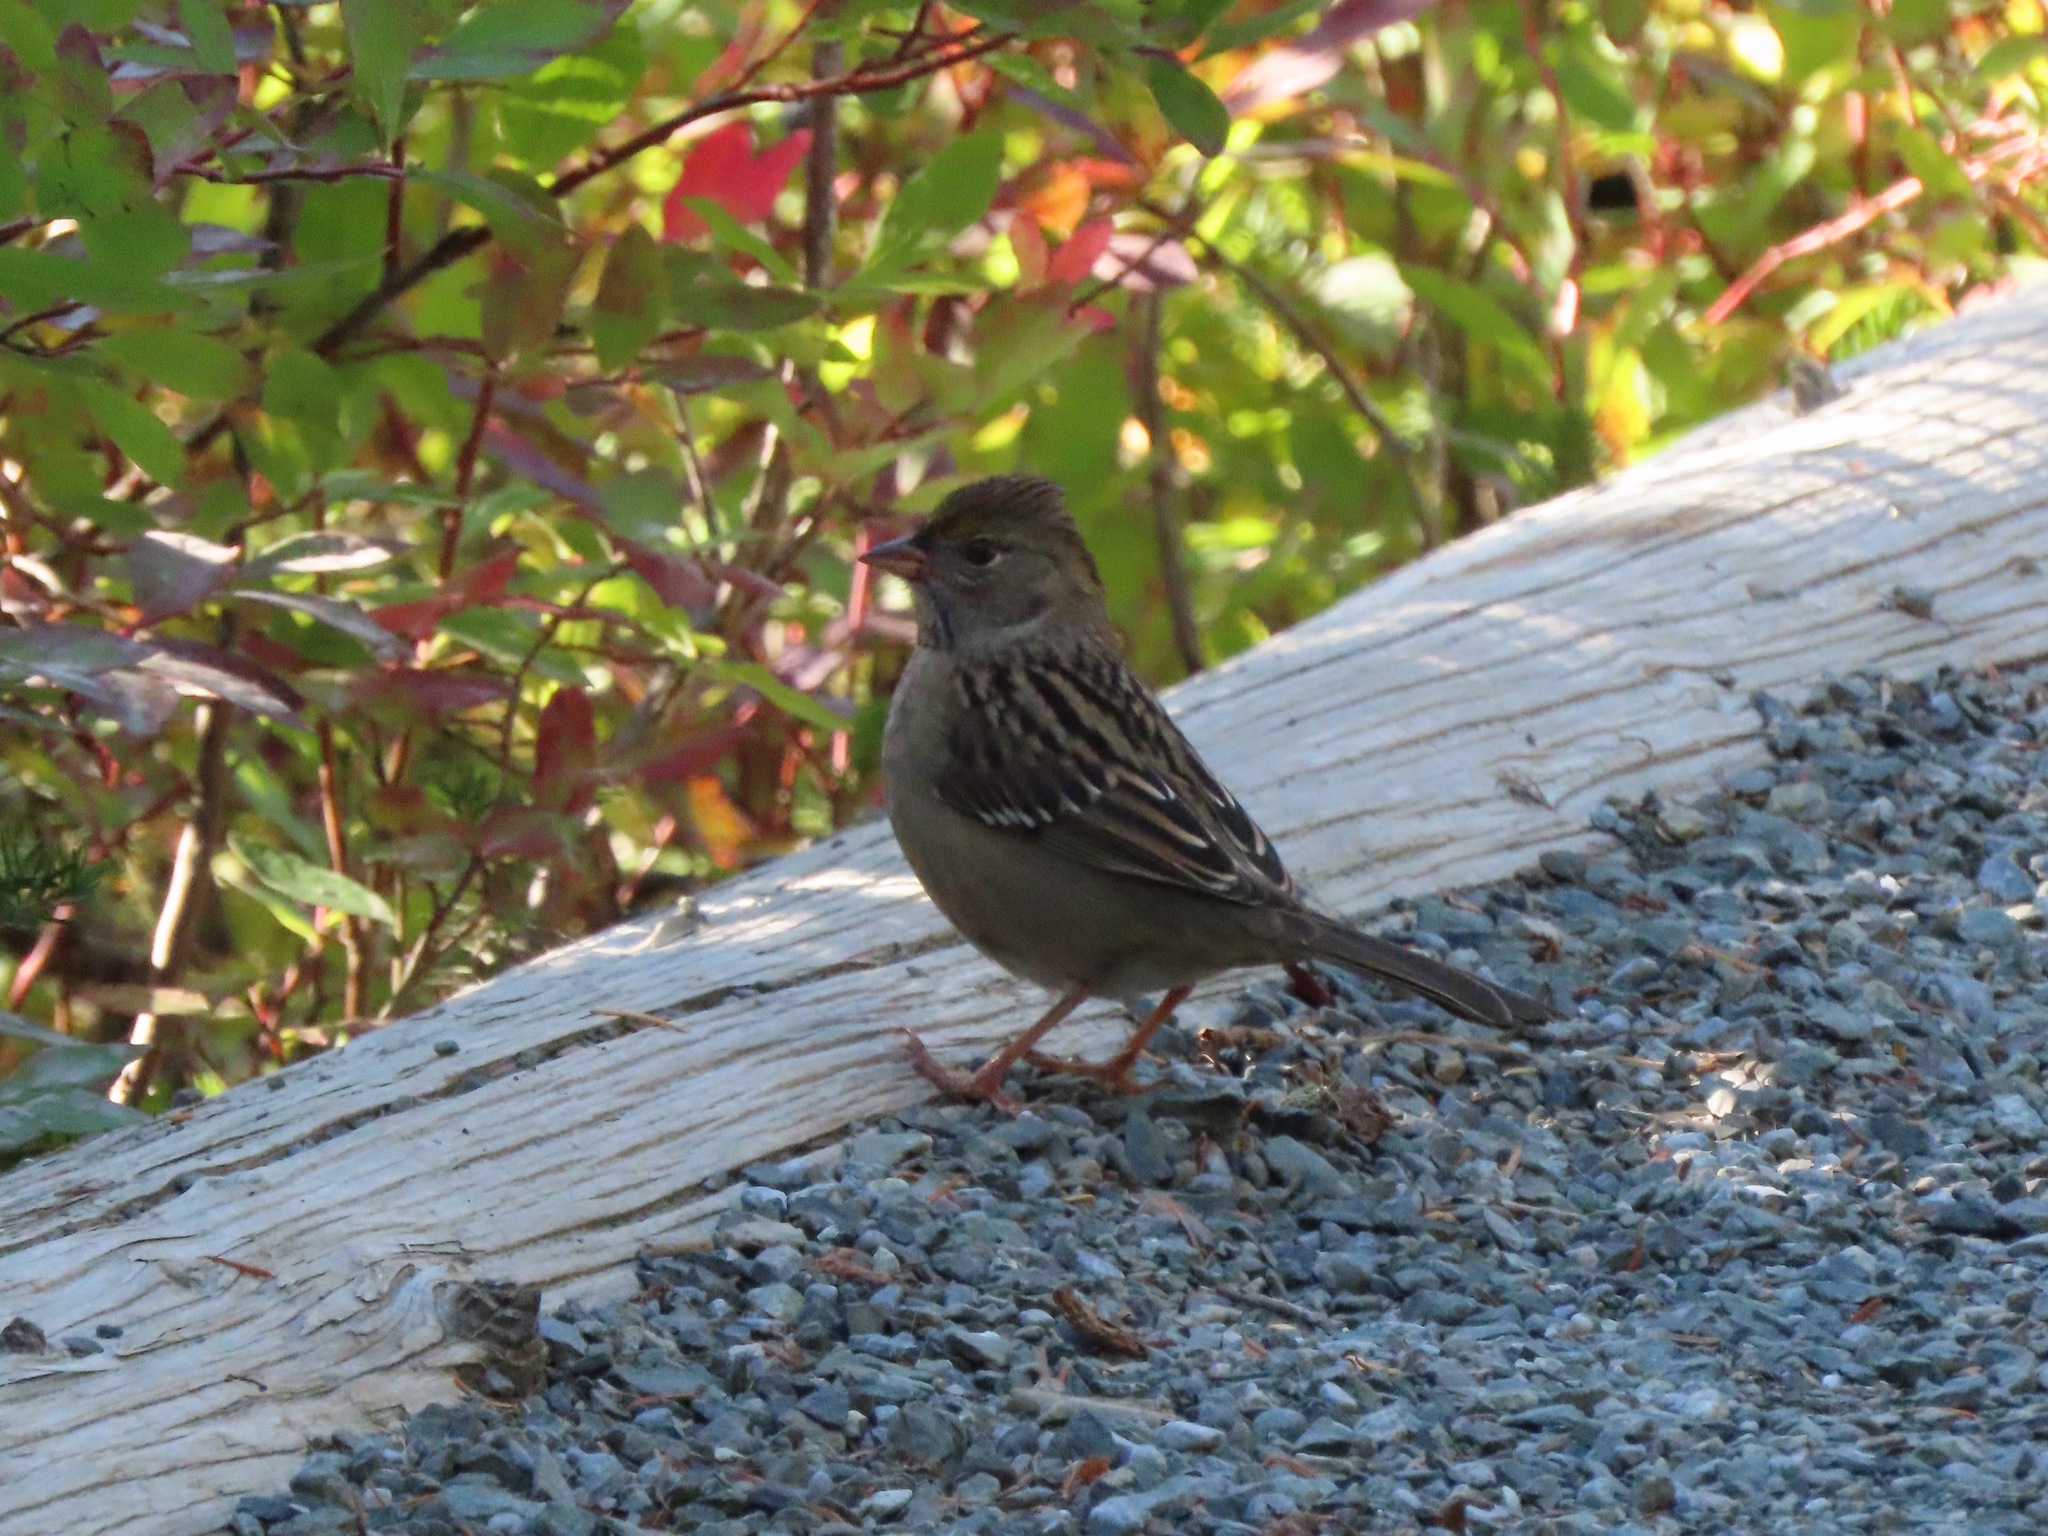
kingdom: Animalia
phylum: Chordata
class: Aves
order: Passeriformes
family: Passerellidae
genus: Zonotrichia
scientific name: Zonotrichia atricapilla
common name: Golden-crowned sparrow
